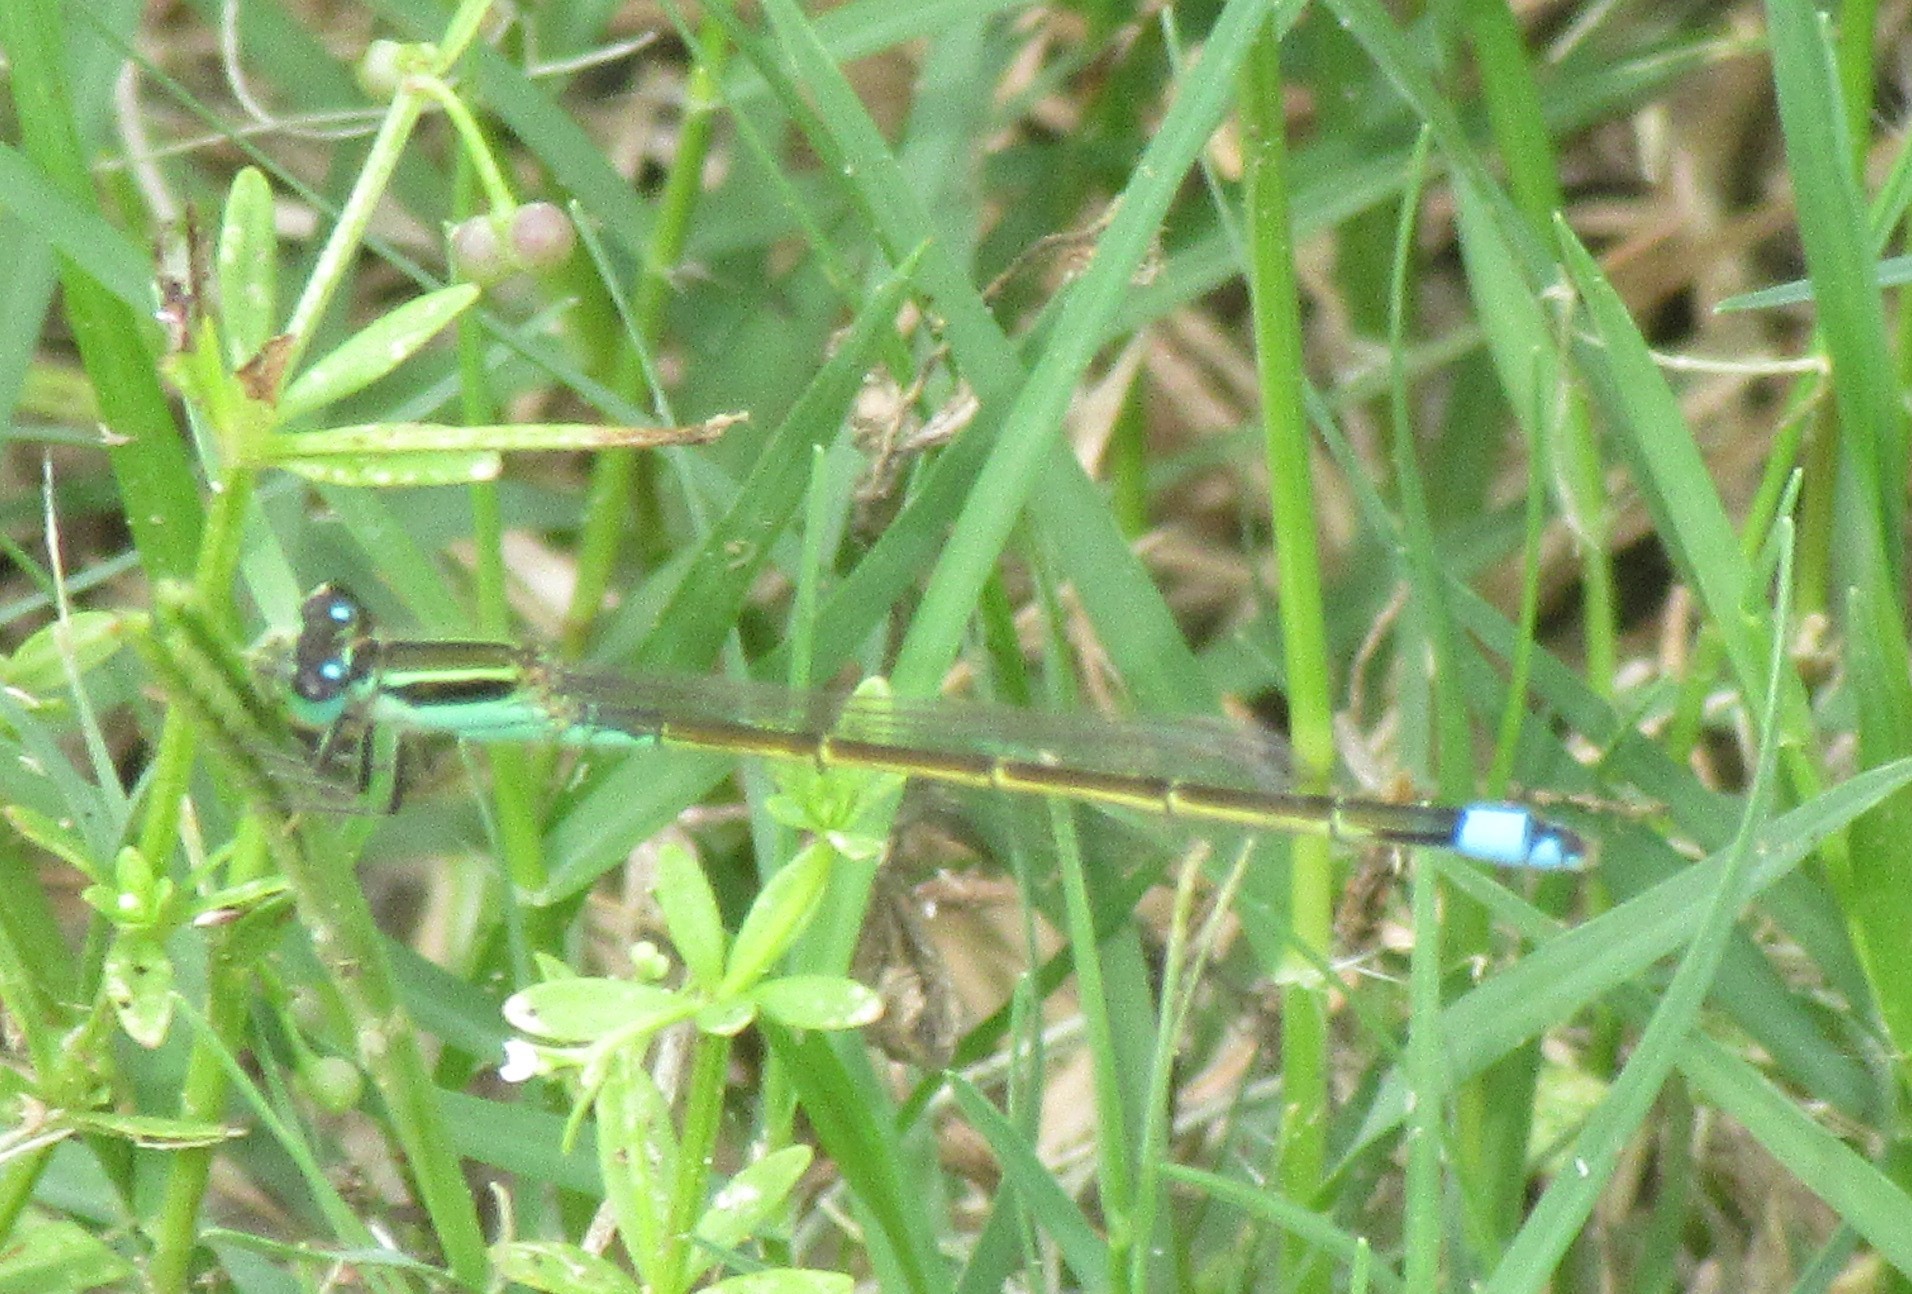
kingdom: Animalia
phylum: Arthropoda
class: Insecta
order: Odonata
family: Coenagrionidae
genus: Ischnura
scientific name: Ischnura ramburii
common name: Rambur's forktail
